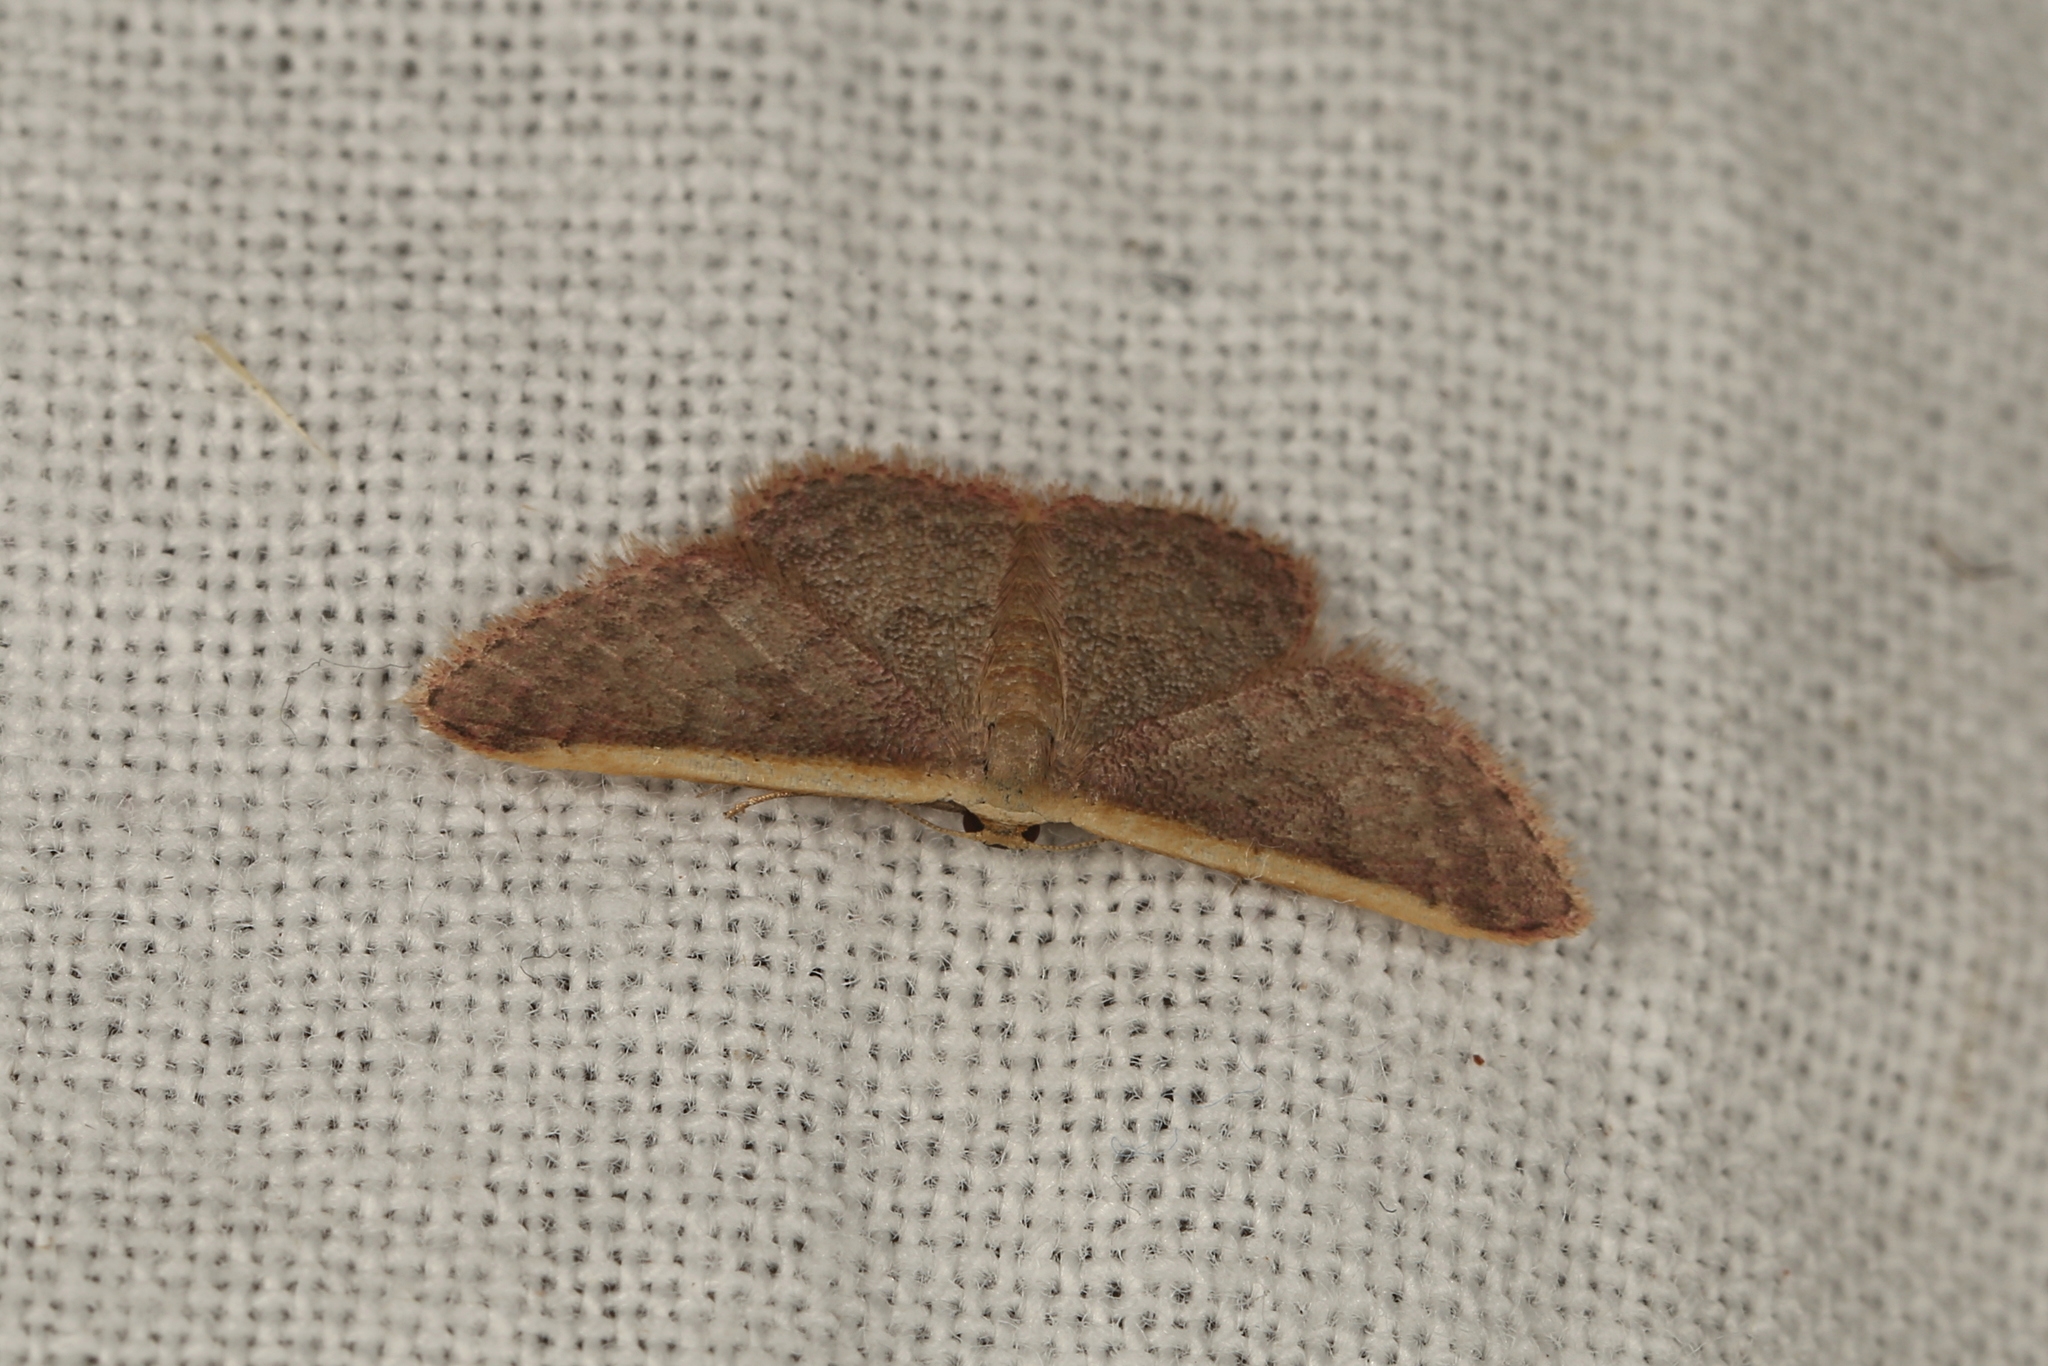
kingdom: Animalia
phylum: Arthropoda
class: Insecta
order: Lepidoptera
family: Geometridae
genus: Idaea
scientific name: Idaea costaria
